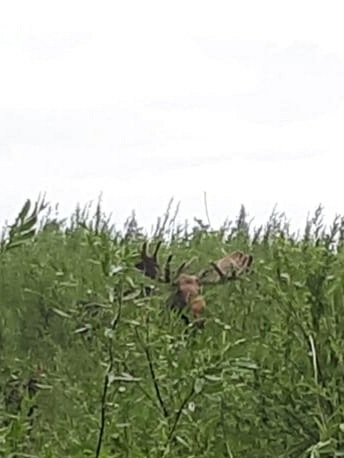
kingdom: Animalia
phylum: Chordata
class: Mammalia
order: Artiodactyla
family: Cervidae
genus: Alces
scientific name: Alces alces
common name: Moose
